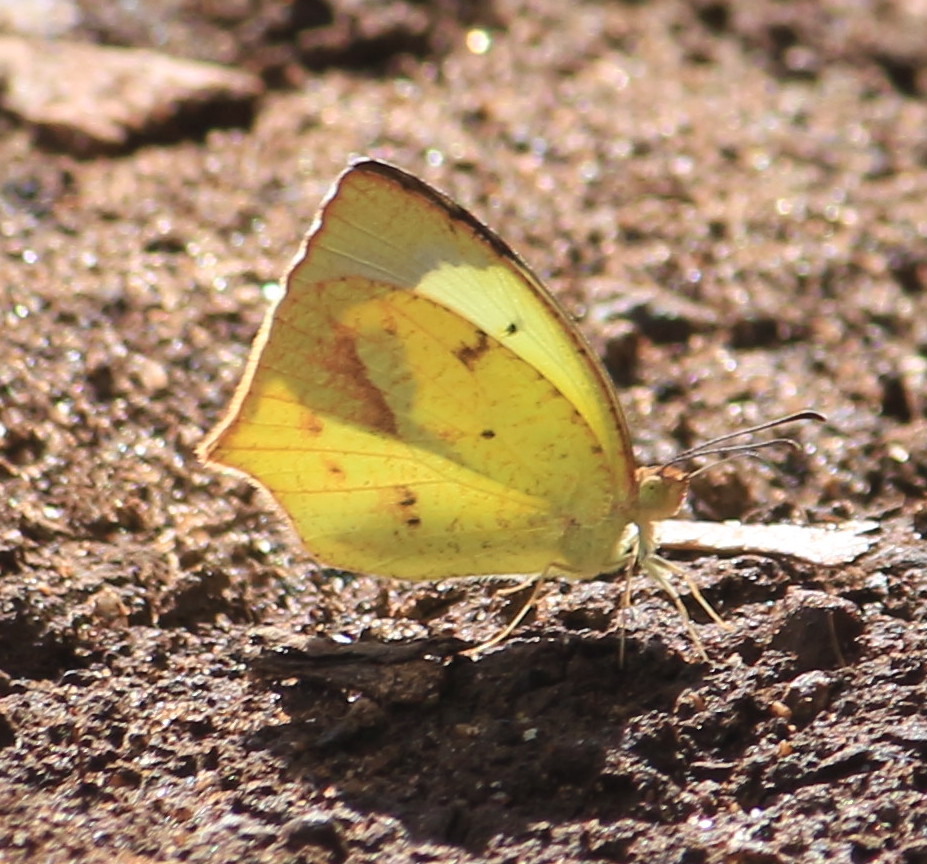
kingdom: Animalia
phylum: Arthropoda
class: Insecta
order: Lepidoptera
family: Pieridae
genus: Abaeis
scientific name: Abaeis mexicana
